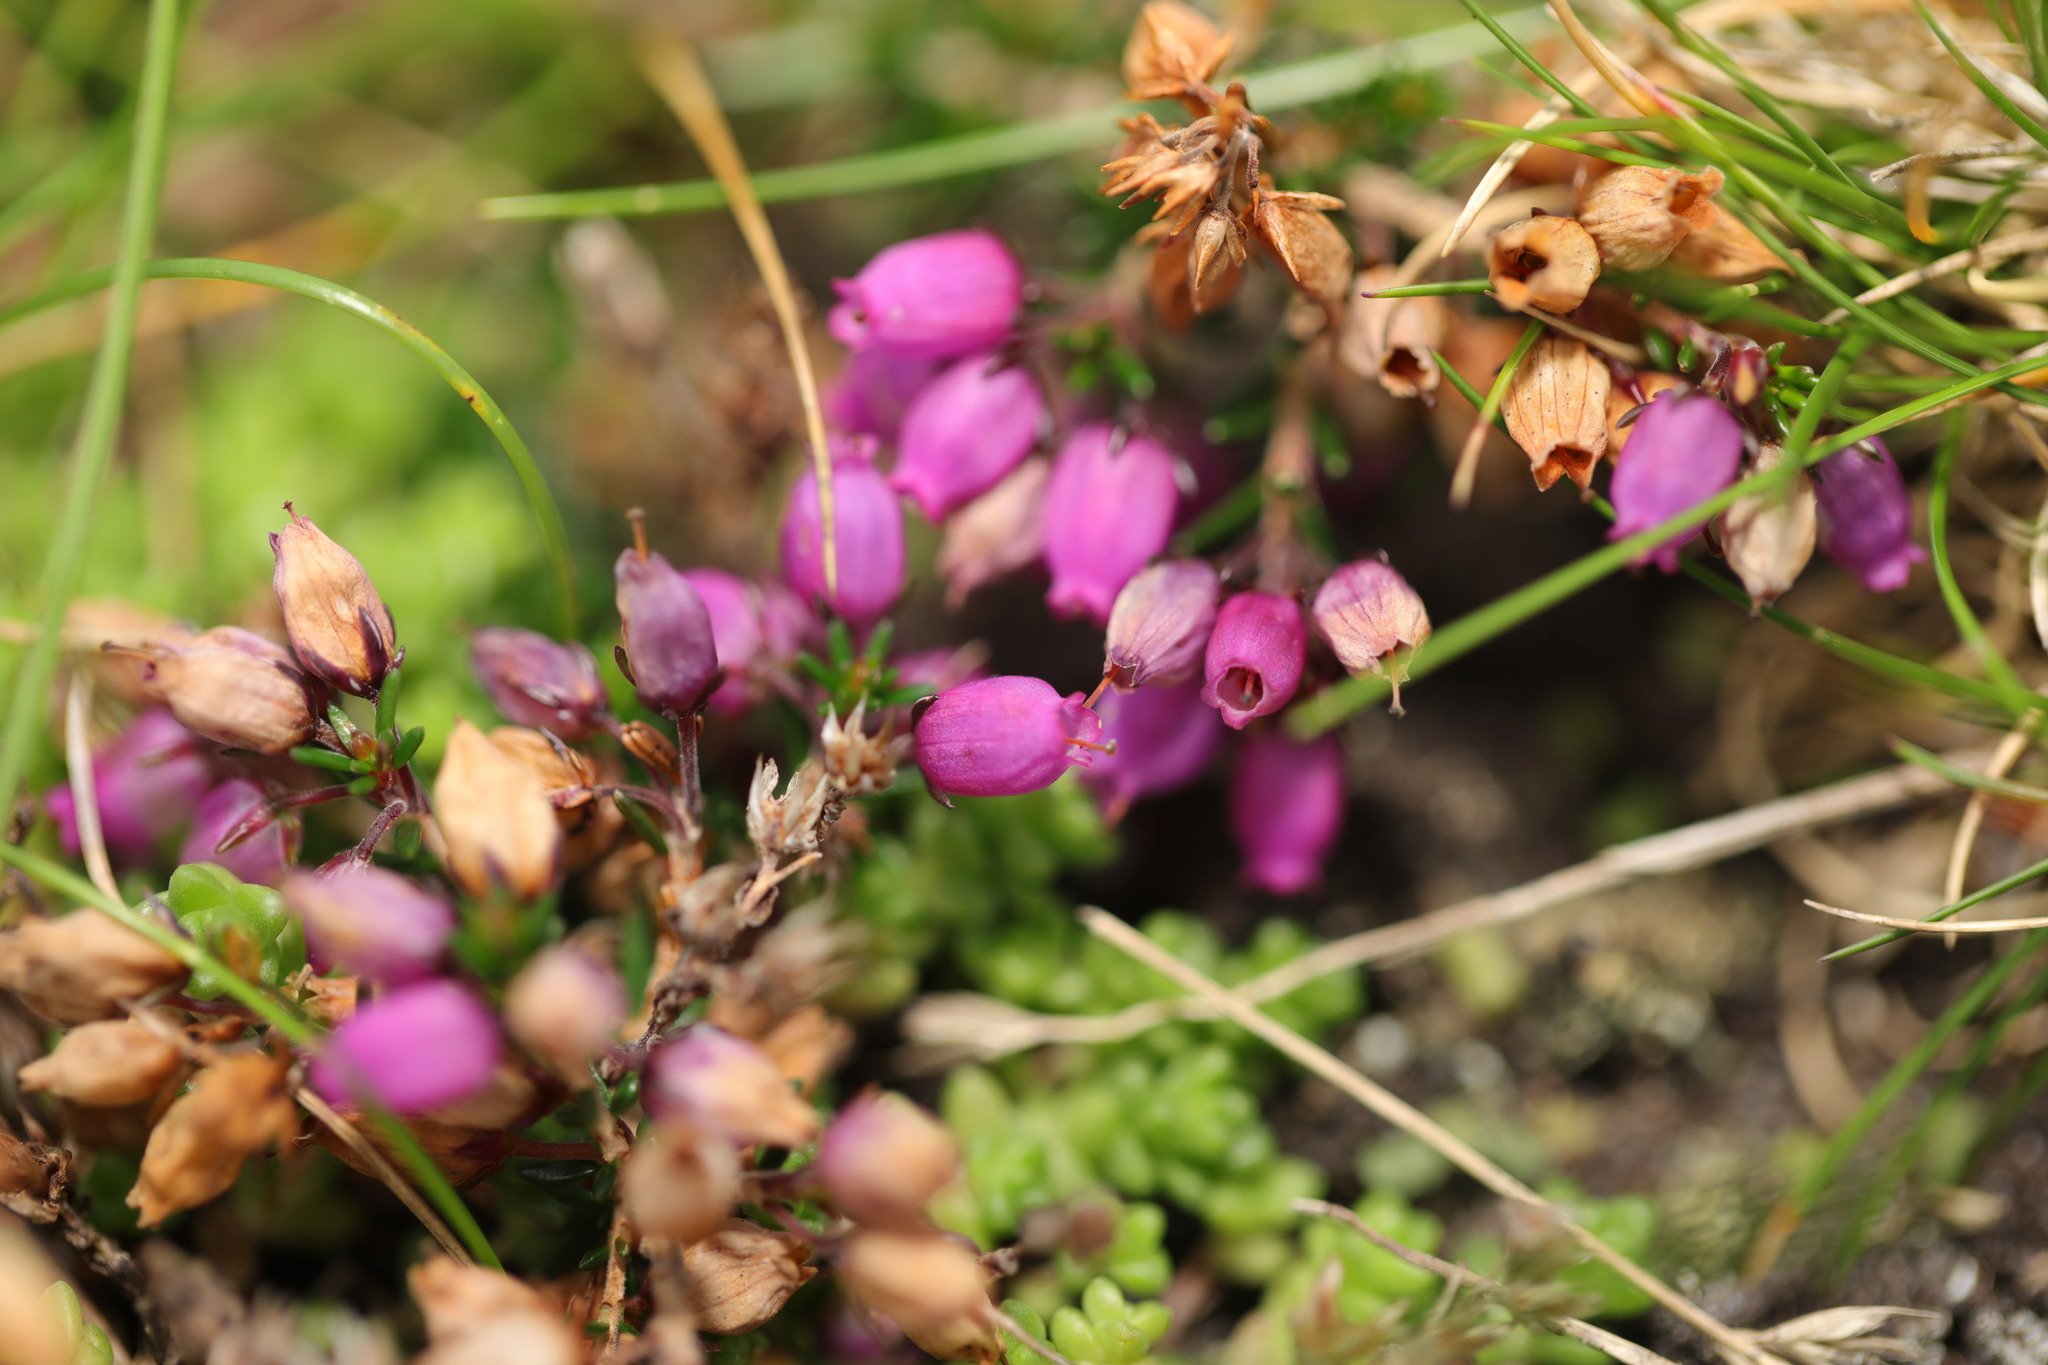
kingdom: Plantae
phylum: Tracheophyta
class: Magnoliopsida
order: Ericales
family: Ericaceae
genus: Erica
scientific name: Erica cinerea
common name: Bell heather
